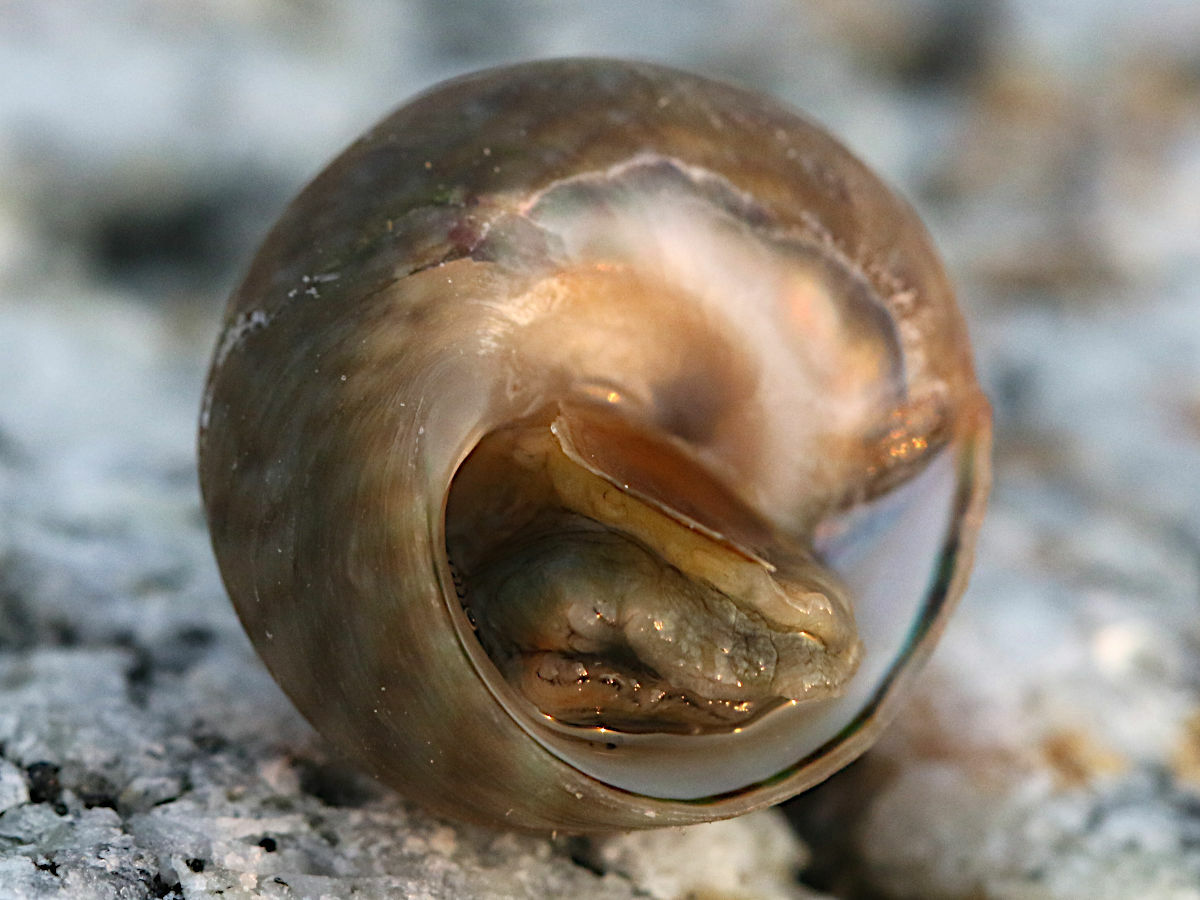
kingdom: Animalia
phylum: Mollusca
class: Gastropoda
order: Trochida
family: Trochidae
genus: Phorcus
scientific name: Phorcus mutabilis
